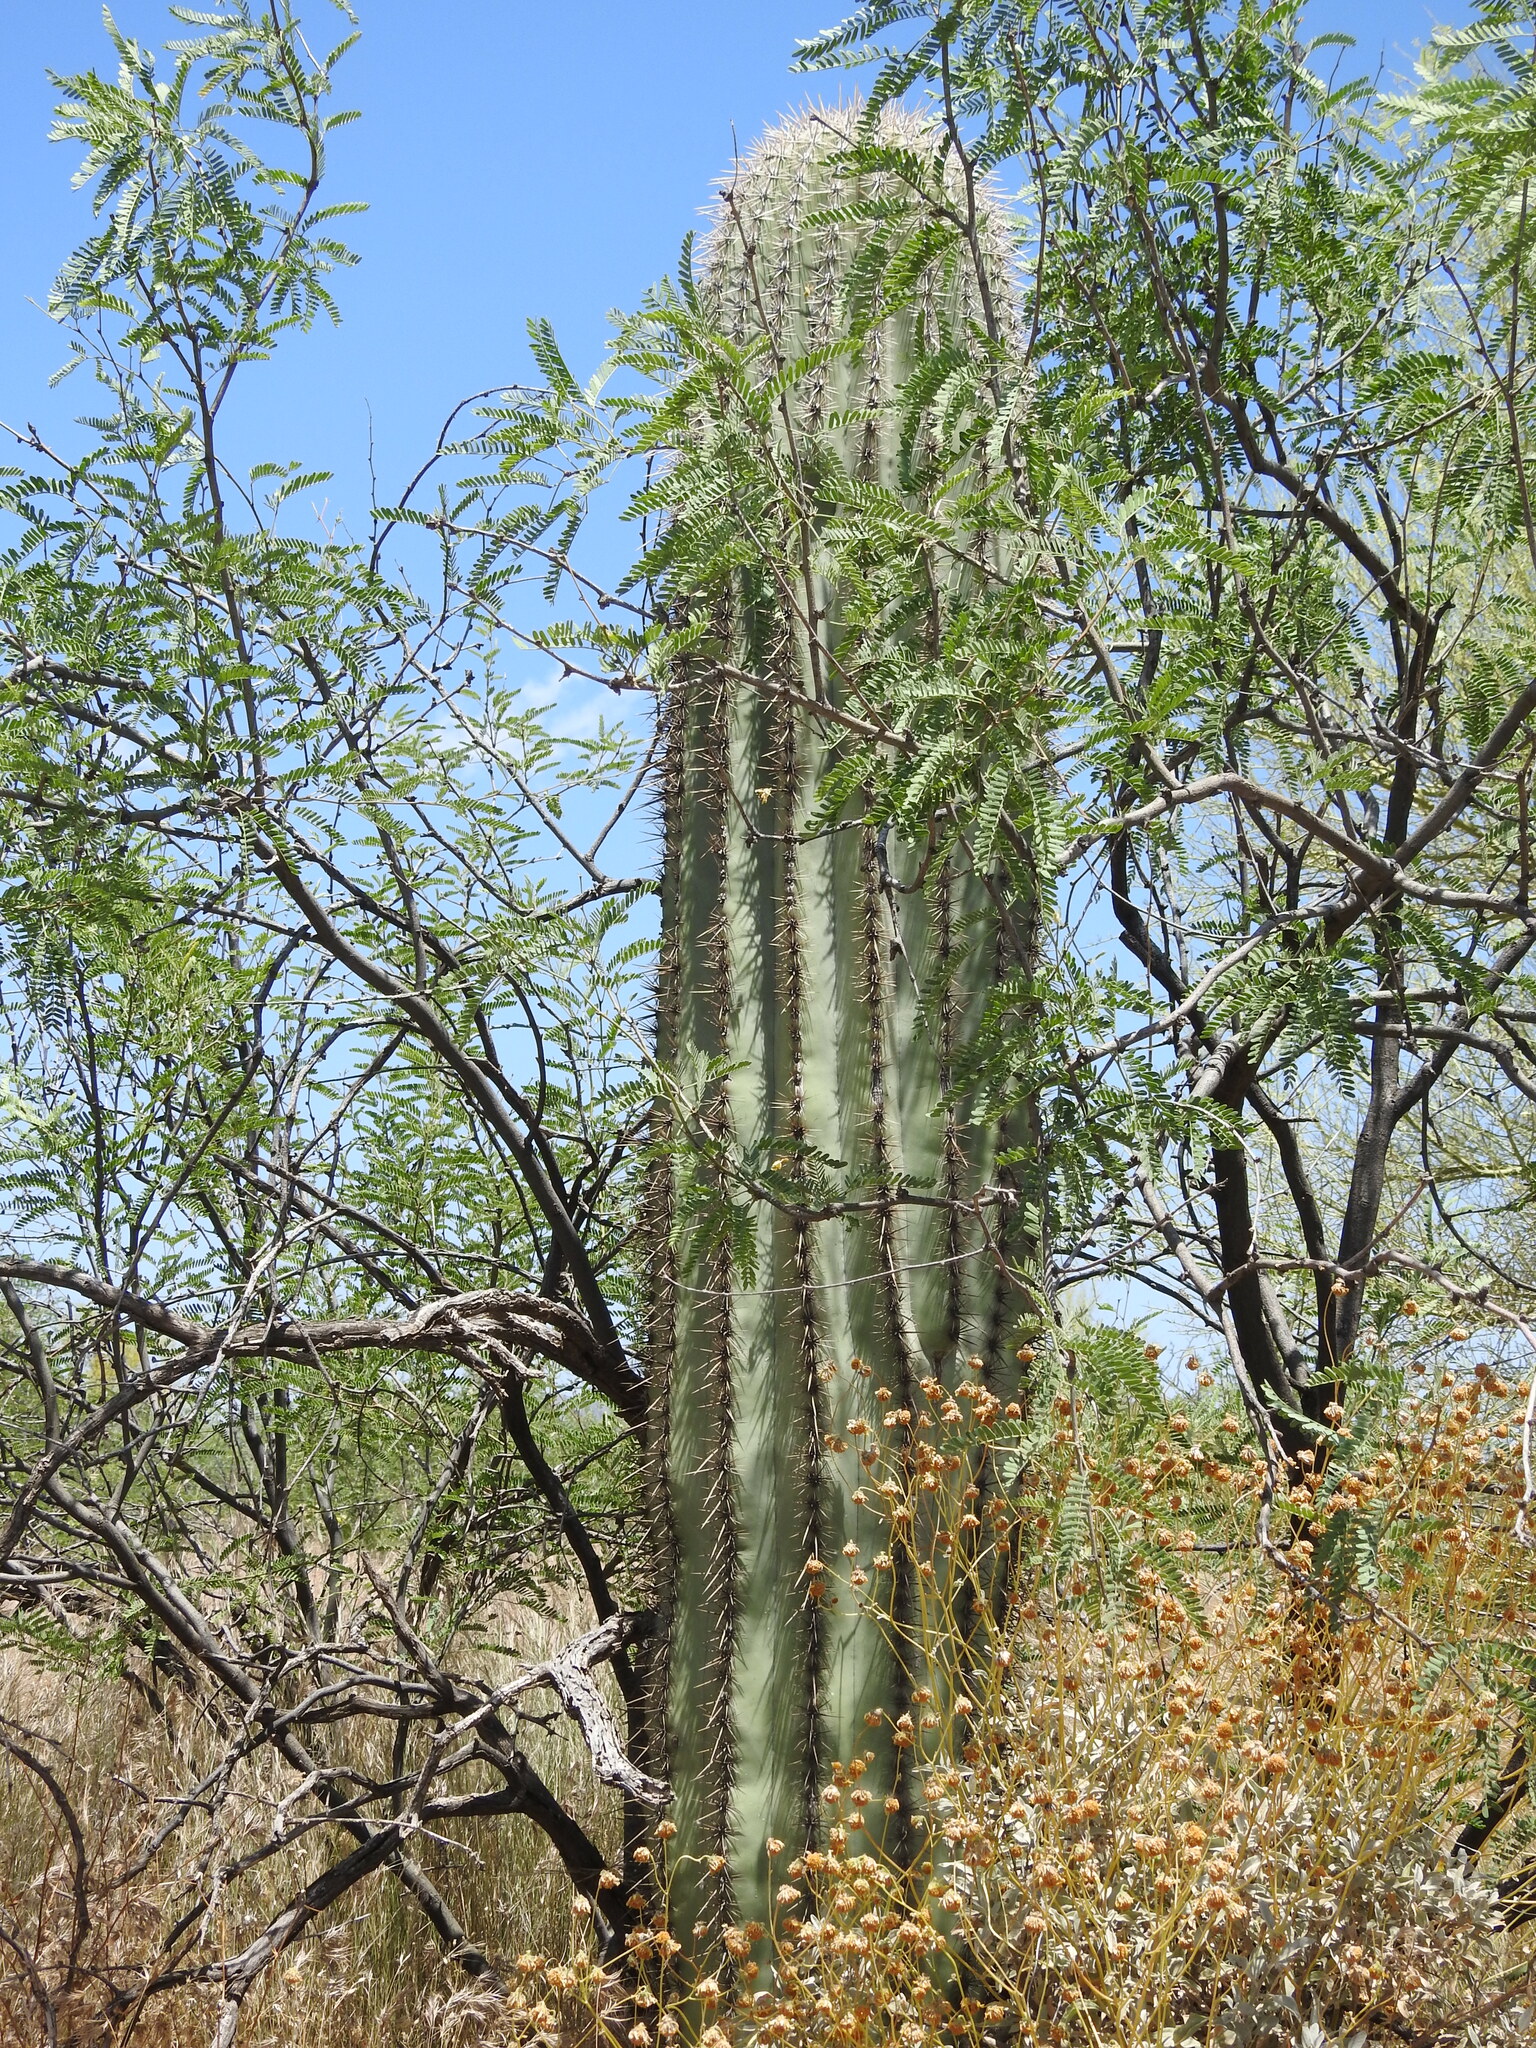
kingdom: Plantae
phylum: Tracheophyta
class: Magnoliopsida
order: Caryophyllales
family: Cactaceae
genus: Carnegiea
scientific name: Carnegiea gigantea
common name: Saguaro
